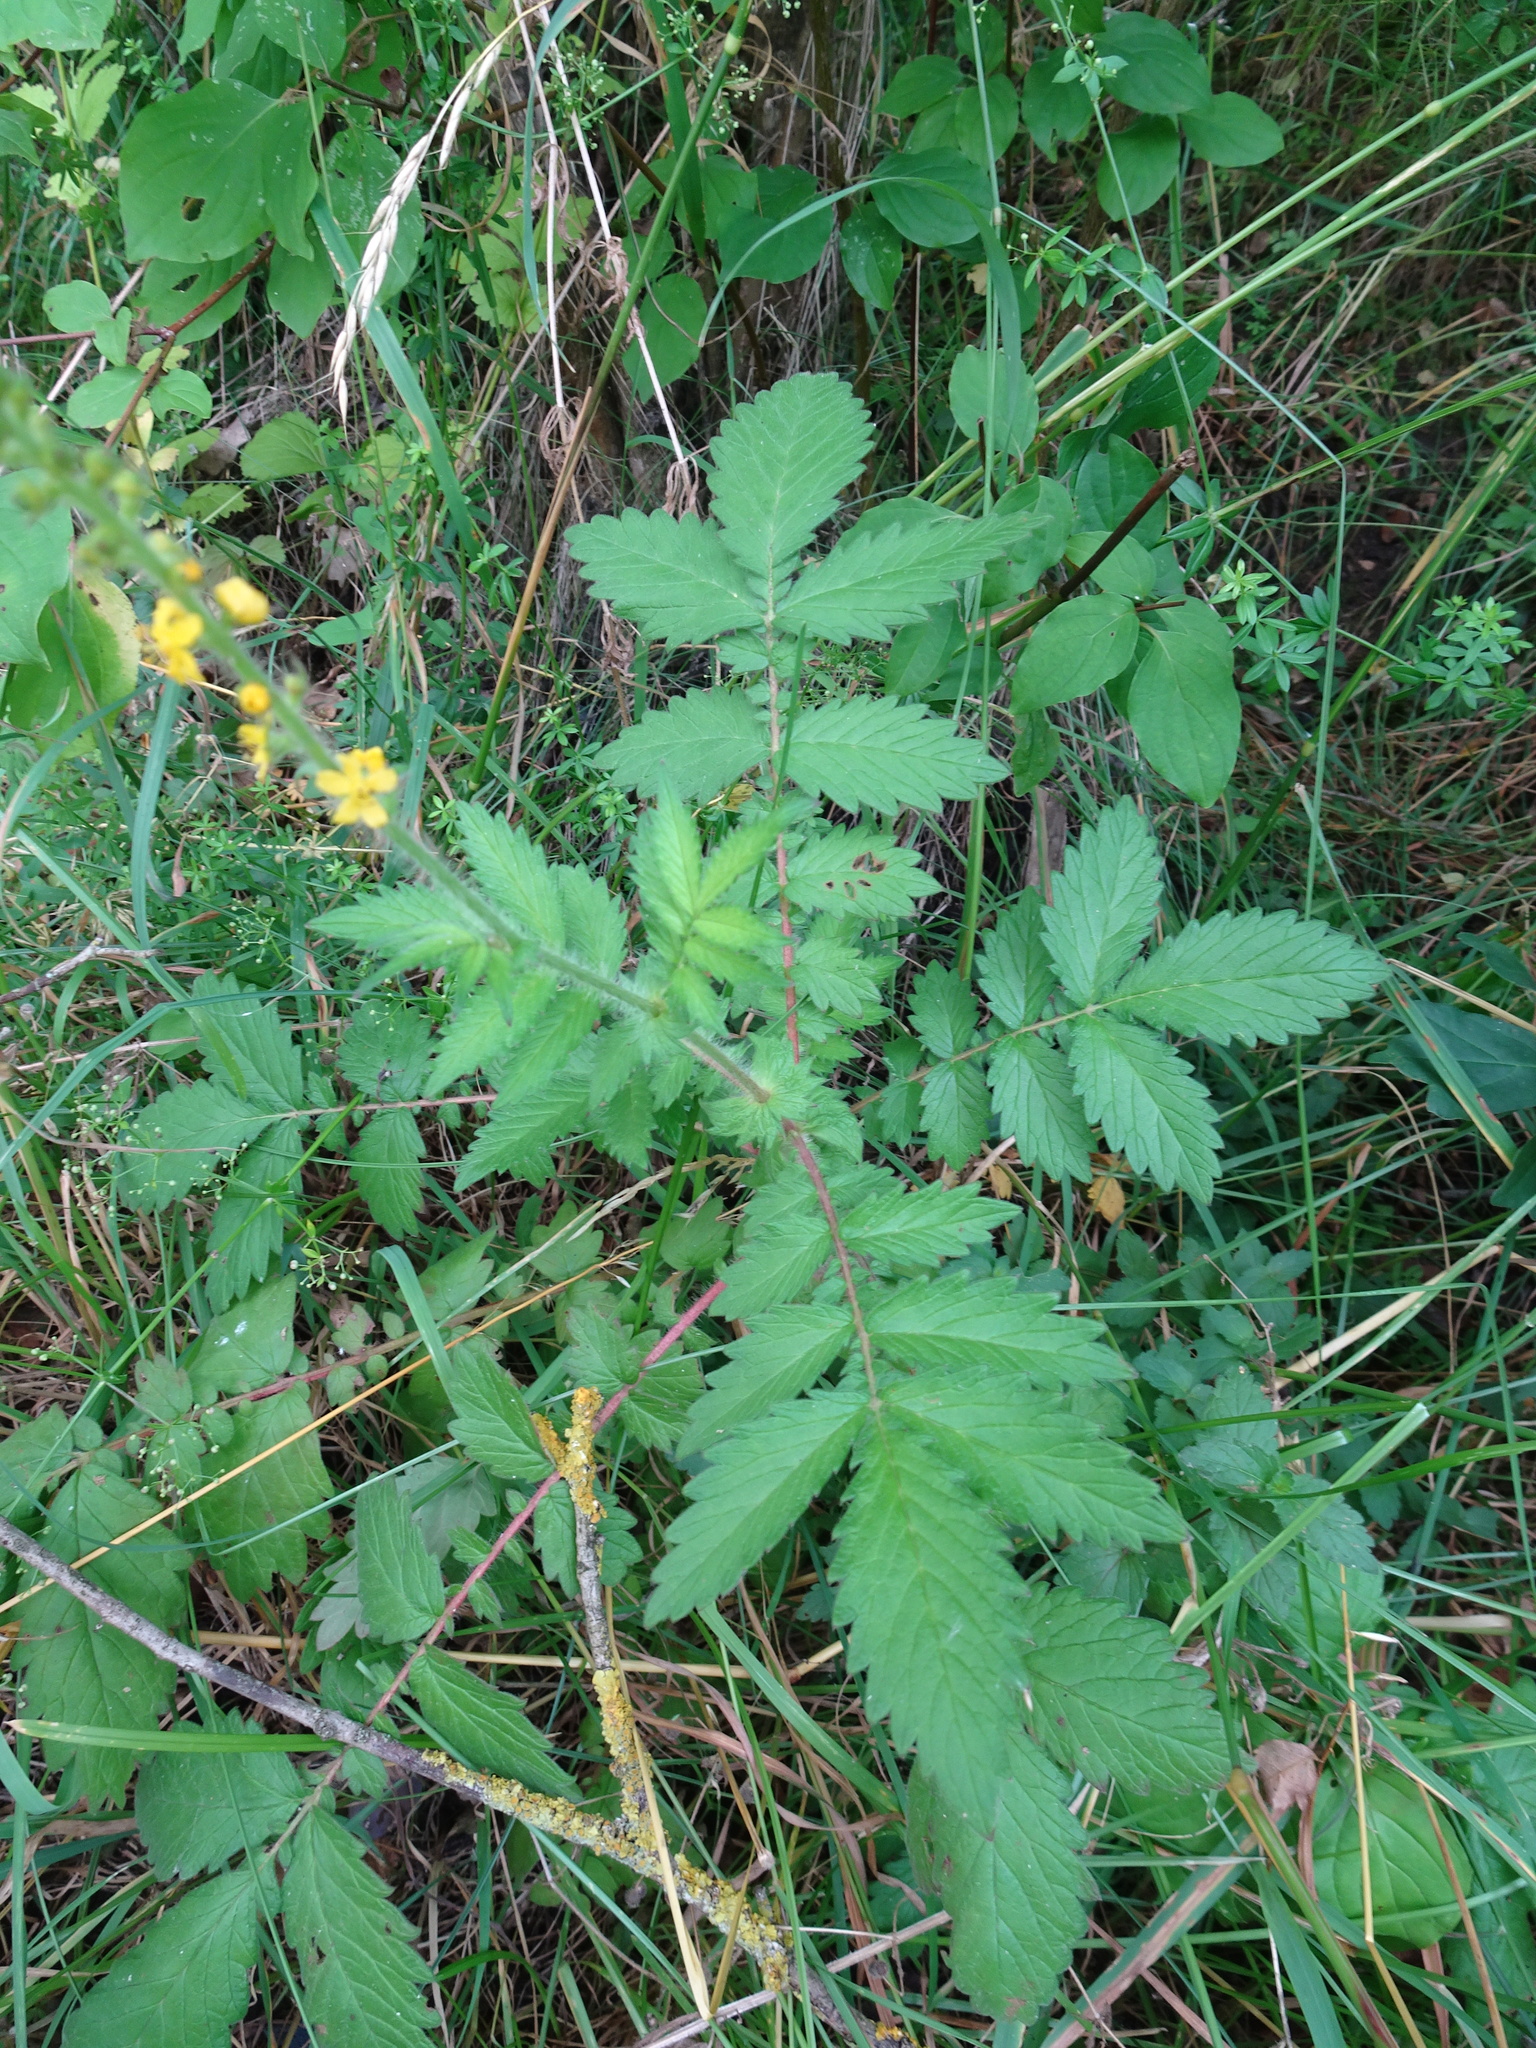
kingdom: Plantae
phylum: Tracheophyta
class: Magnoliopsida
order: Rosales
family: Rosaceae
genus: Agrimonia
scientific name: Agrimonia eupatoria
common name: Agrimony
